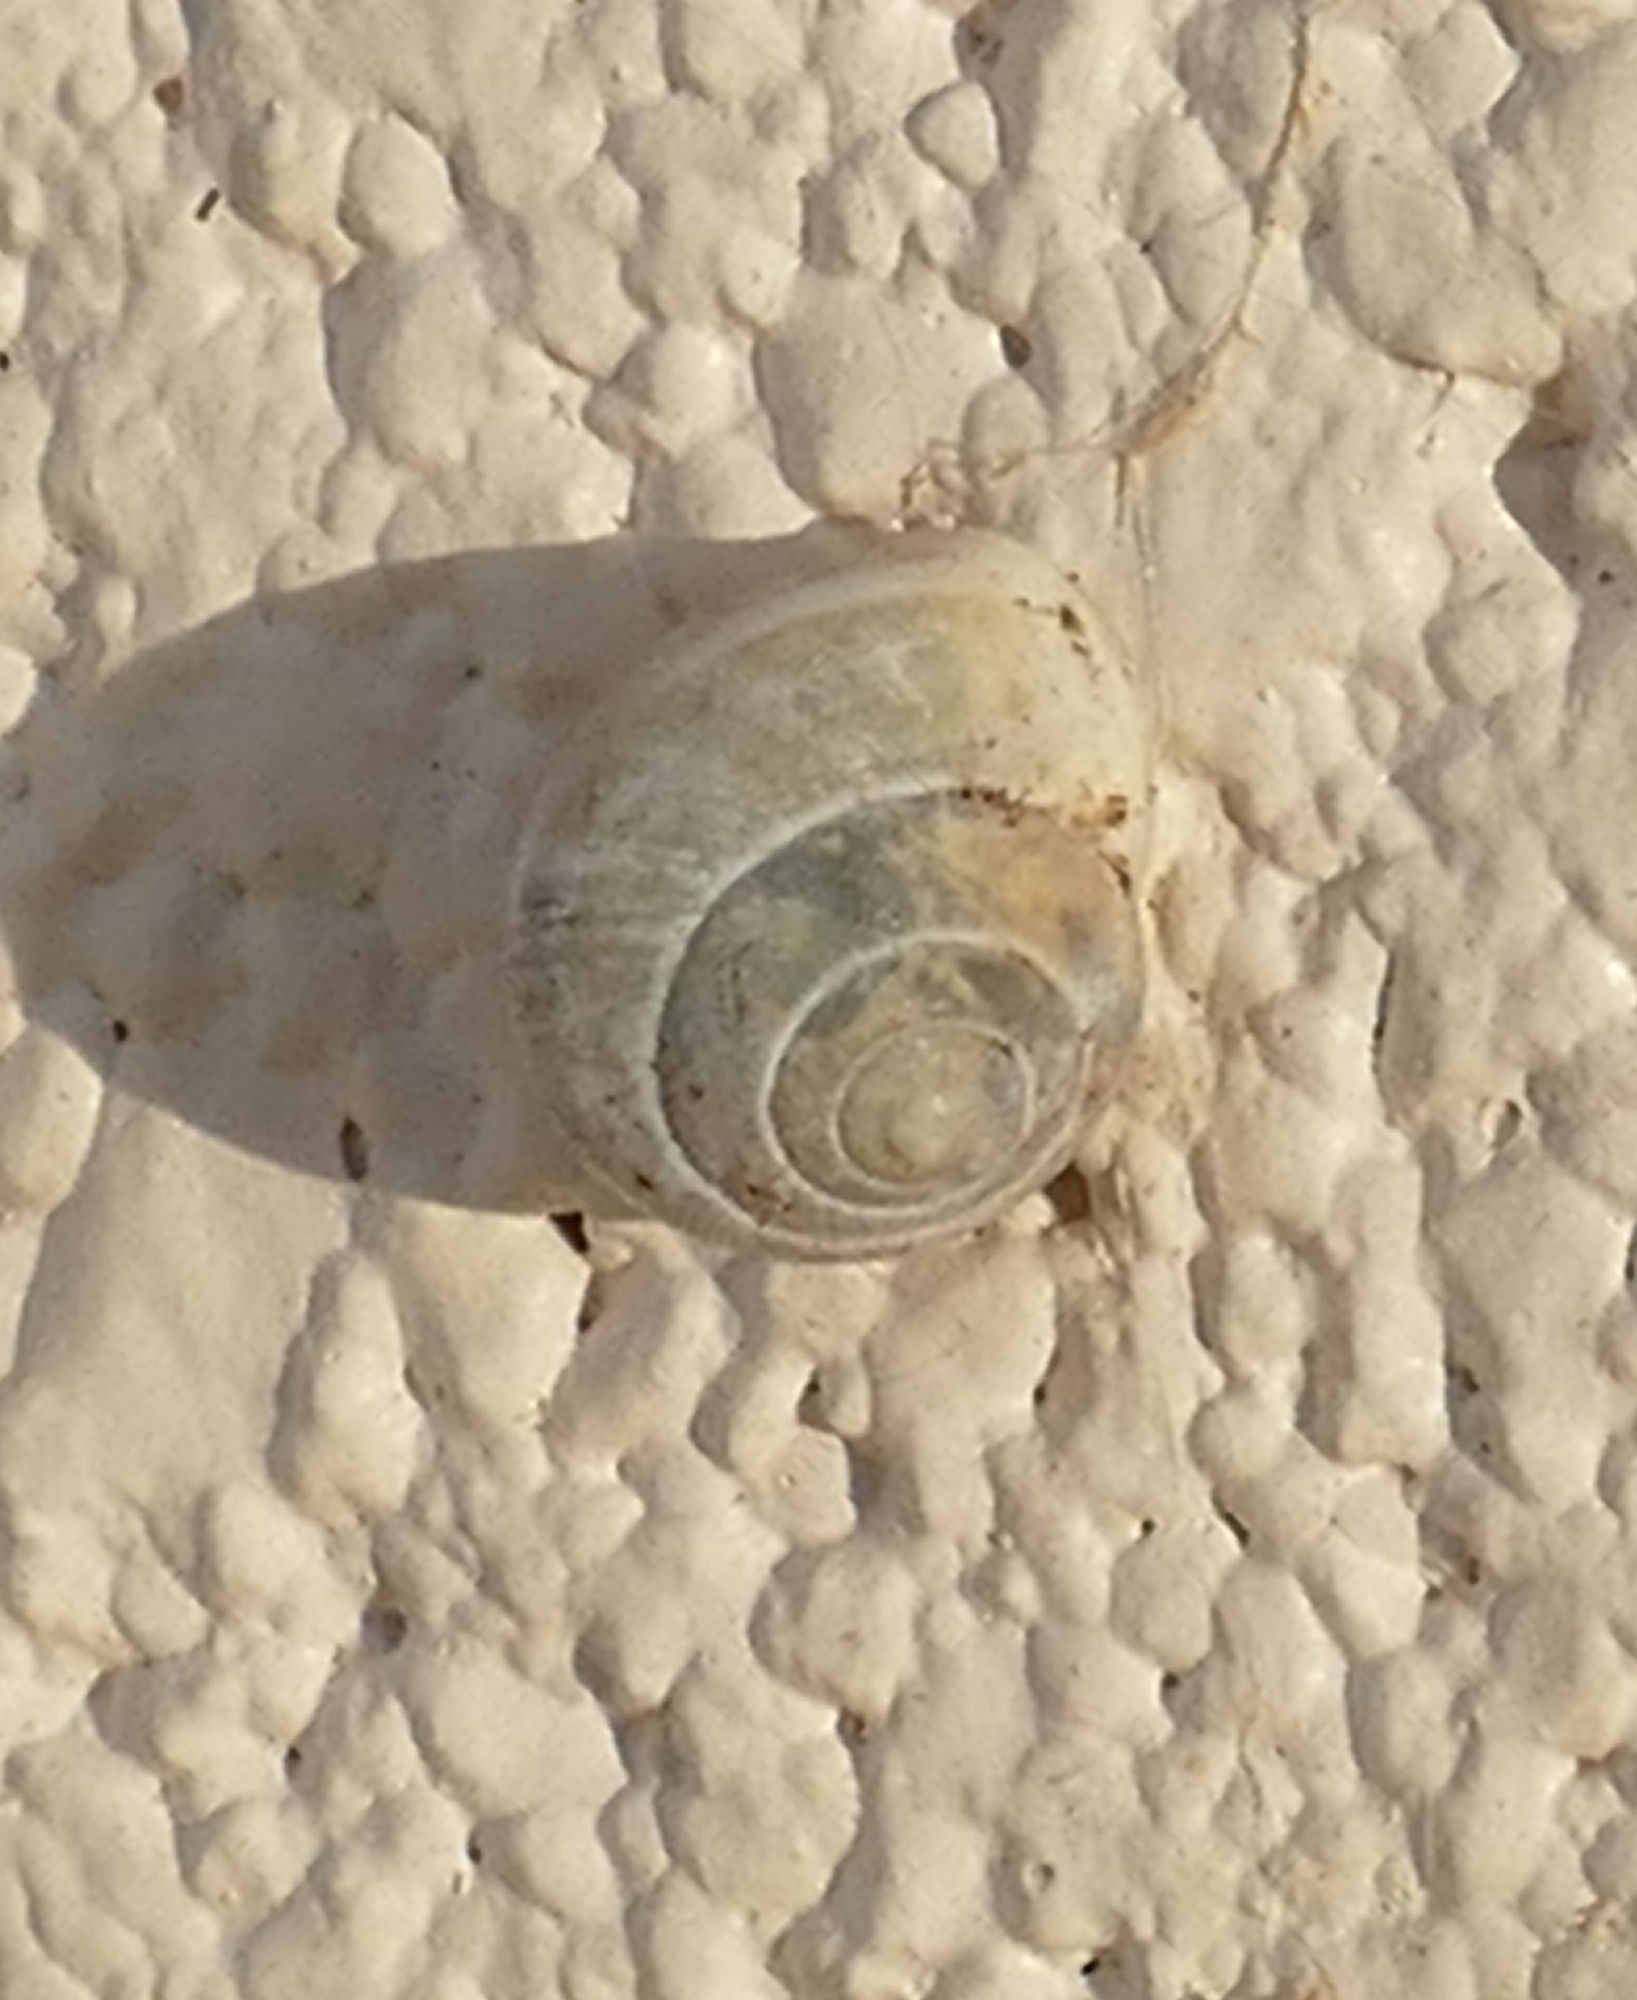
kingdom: Animalia
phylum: Mollusca
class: Gastropoda
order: Cycloneritida
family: Helicinidae
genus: Helicina
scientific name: Helicina orbiculata
